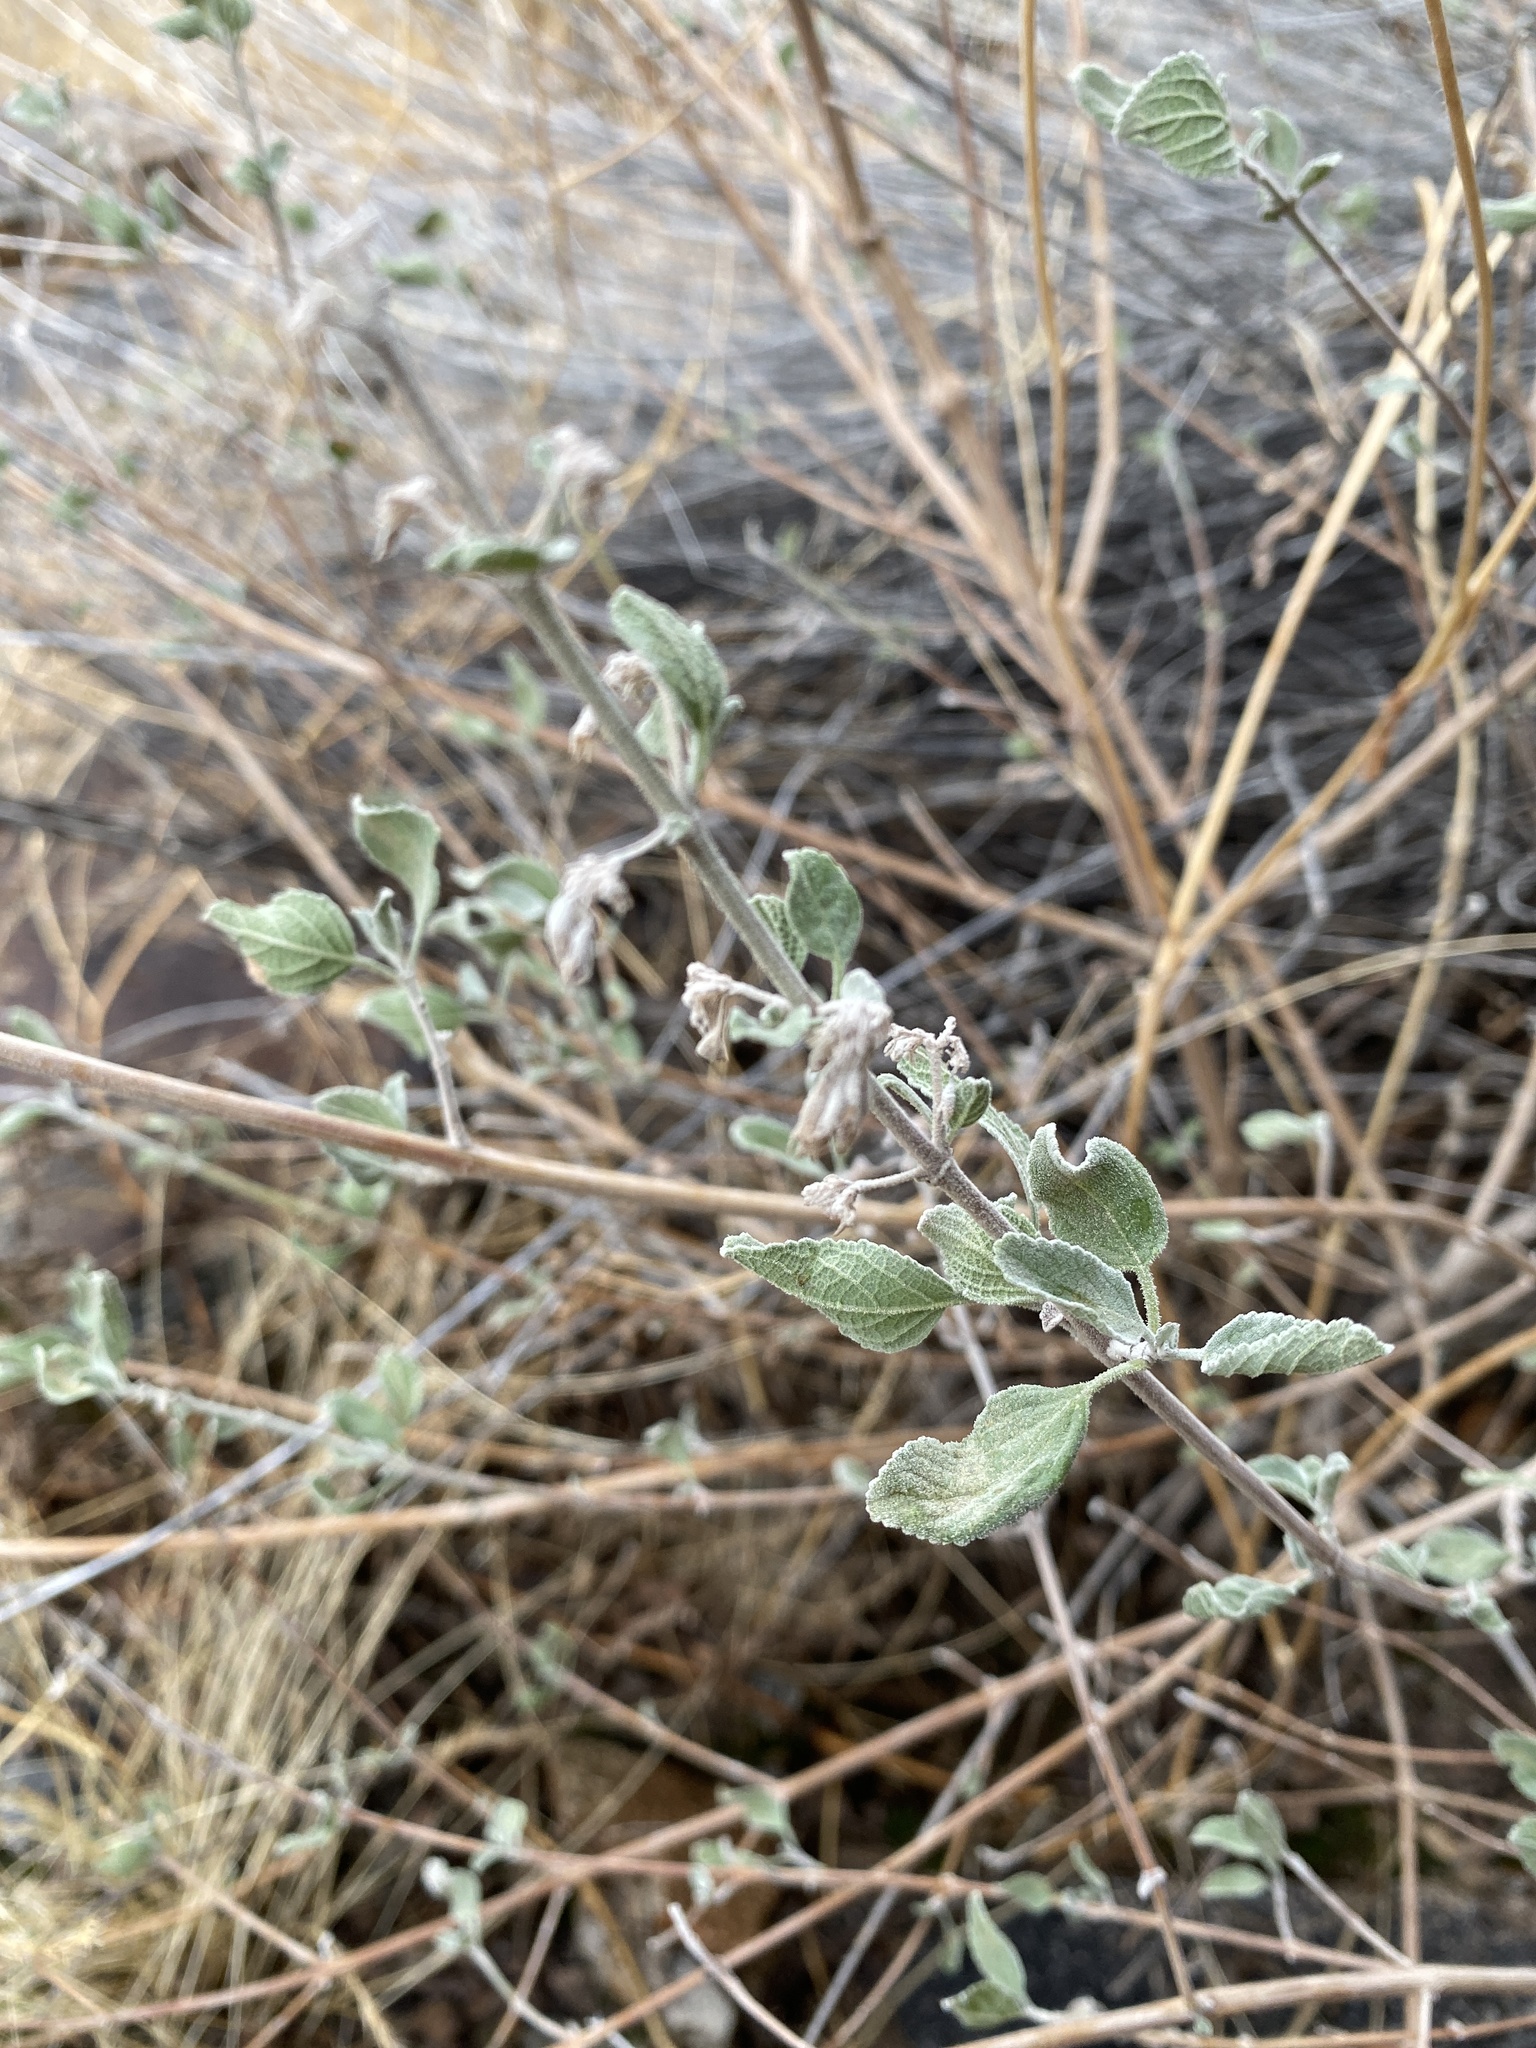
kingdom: Plantae
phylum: Tracheophyta
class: Magnoliopsida
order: Lamiales
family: Lamiaceae
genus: Condea
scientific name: Condea emoryi
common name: Chia
